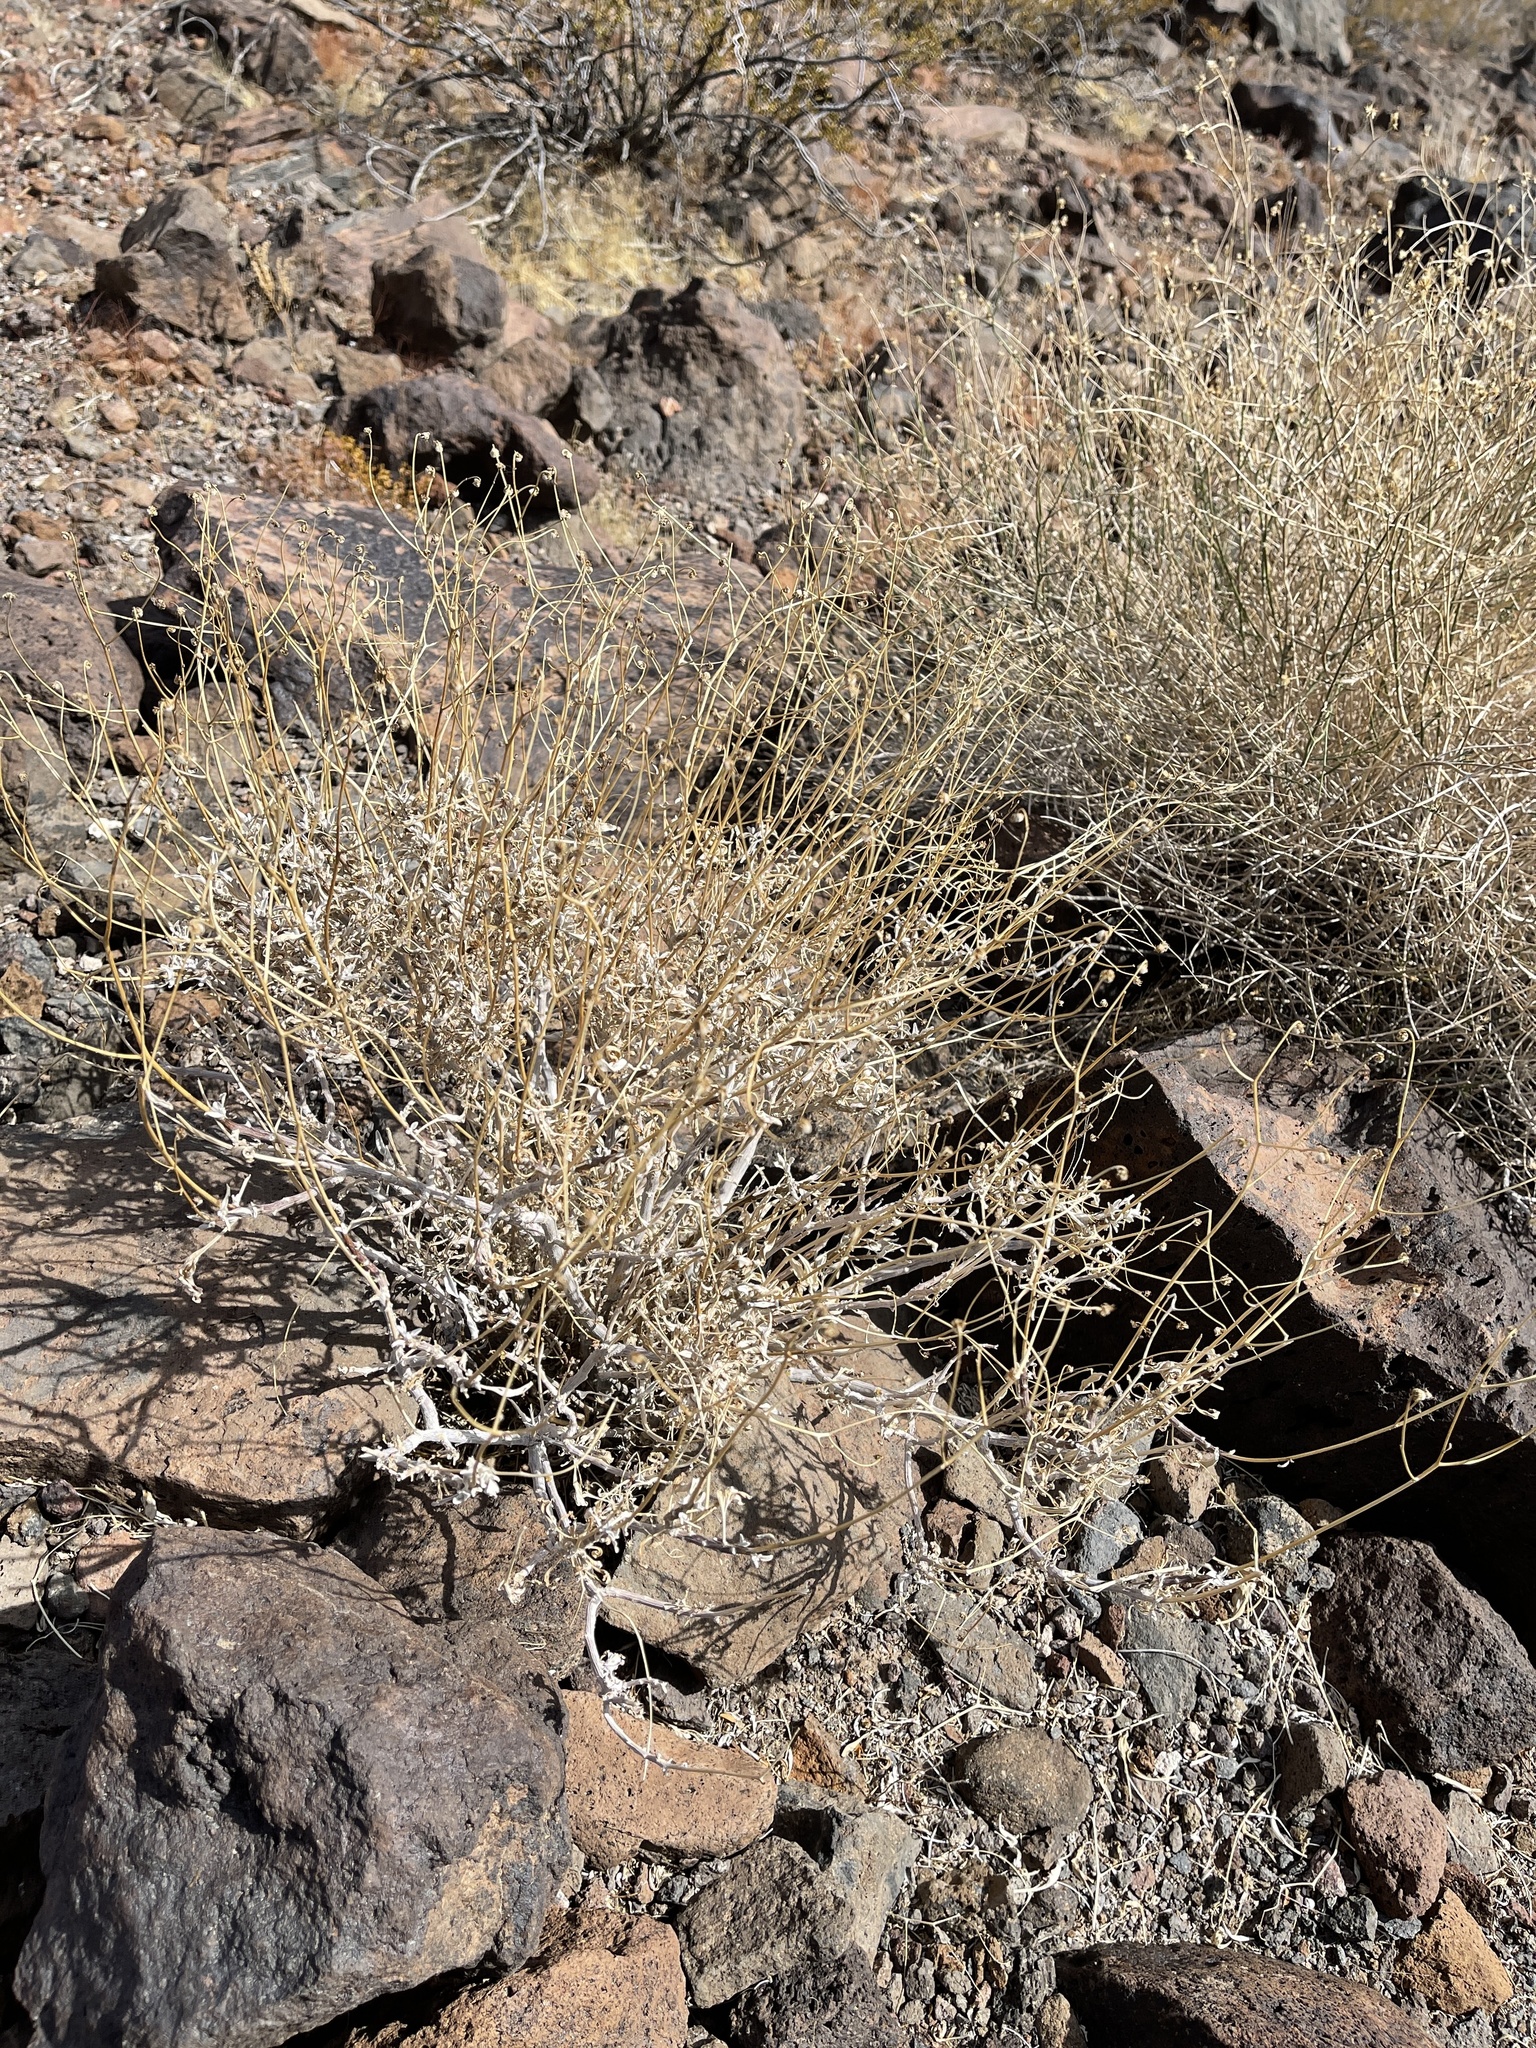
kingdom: Plantae
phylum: Tracheophyta
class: Magnoliopsida
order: Asterales
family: Asteraceae
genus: Encelia
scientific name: Encelia farinosa
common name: Brittlebush
